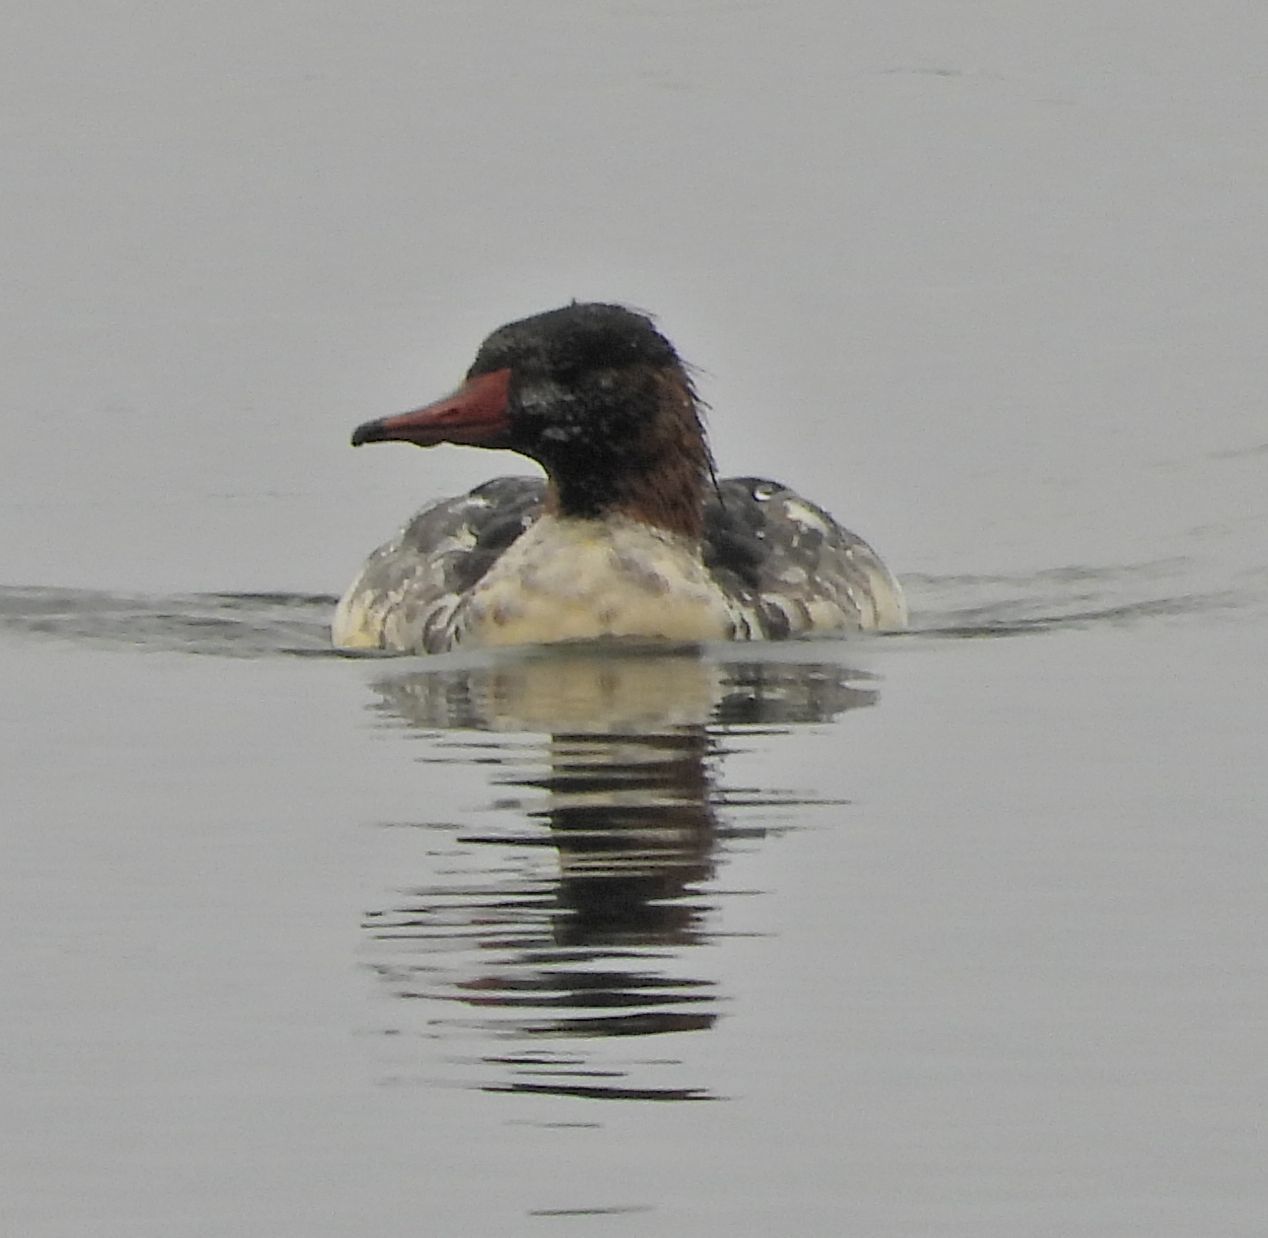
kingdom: Animalia
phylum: Chordata
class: Aves
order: Anseriformes
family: Anatidae
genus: Mergus
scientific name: Mergus merganser
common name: Common merganser
